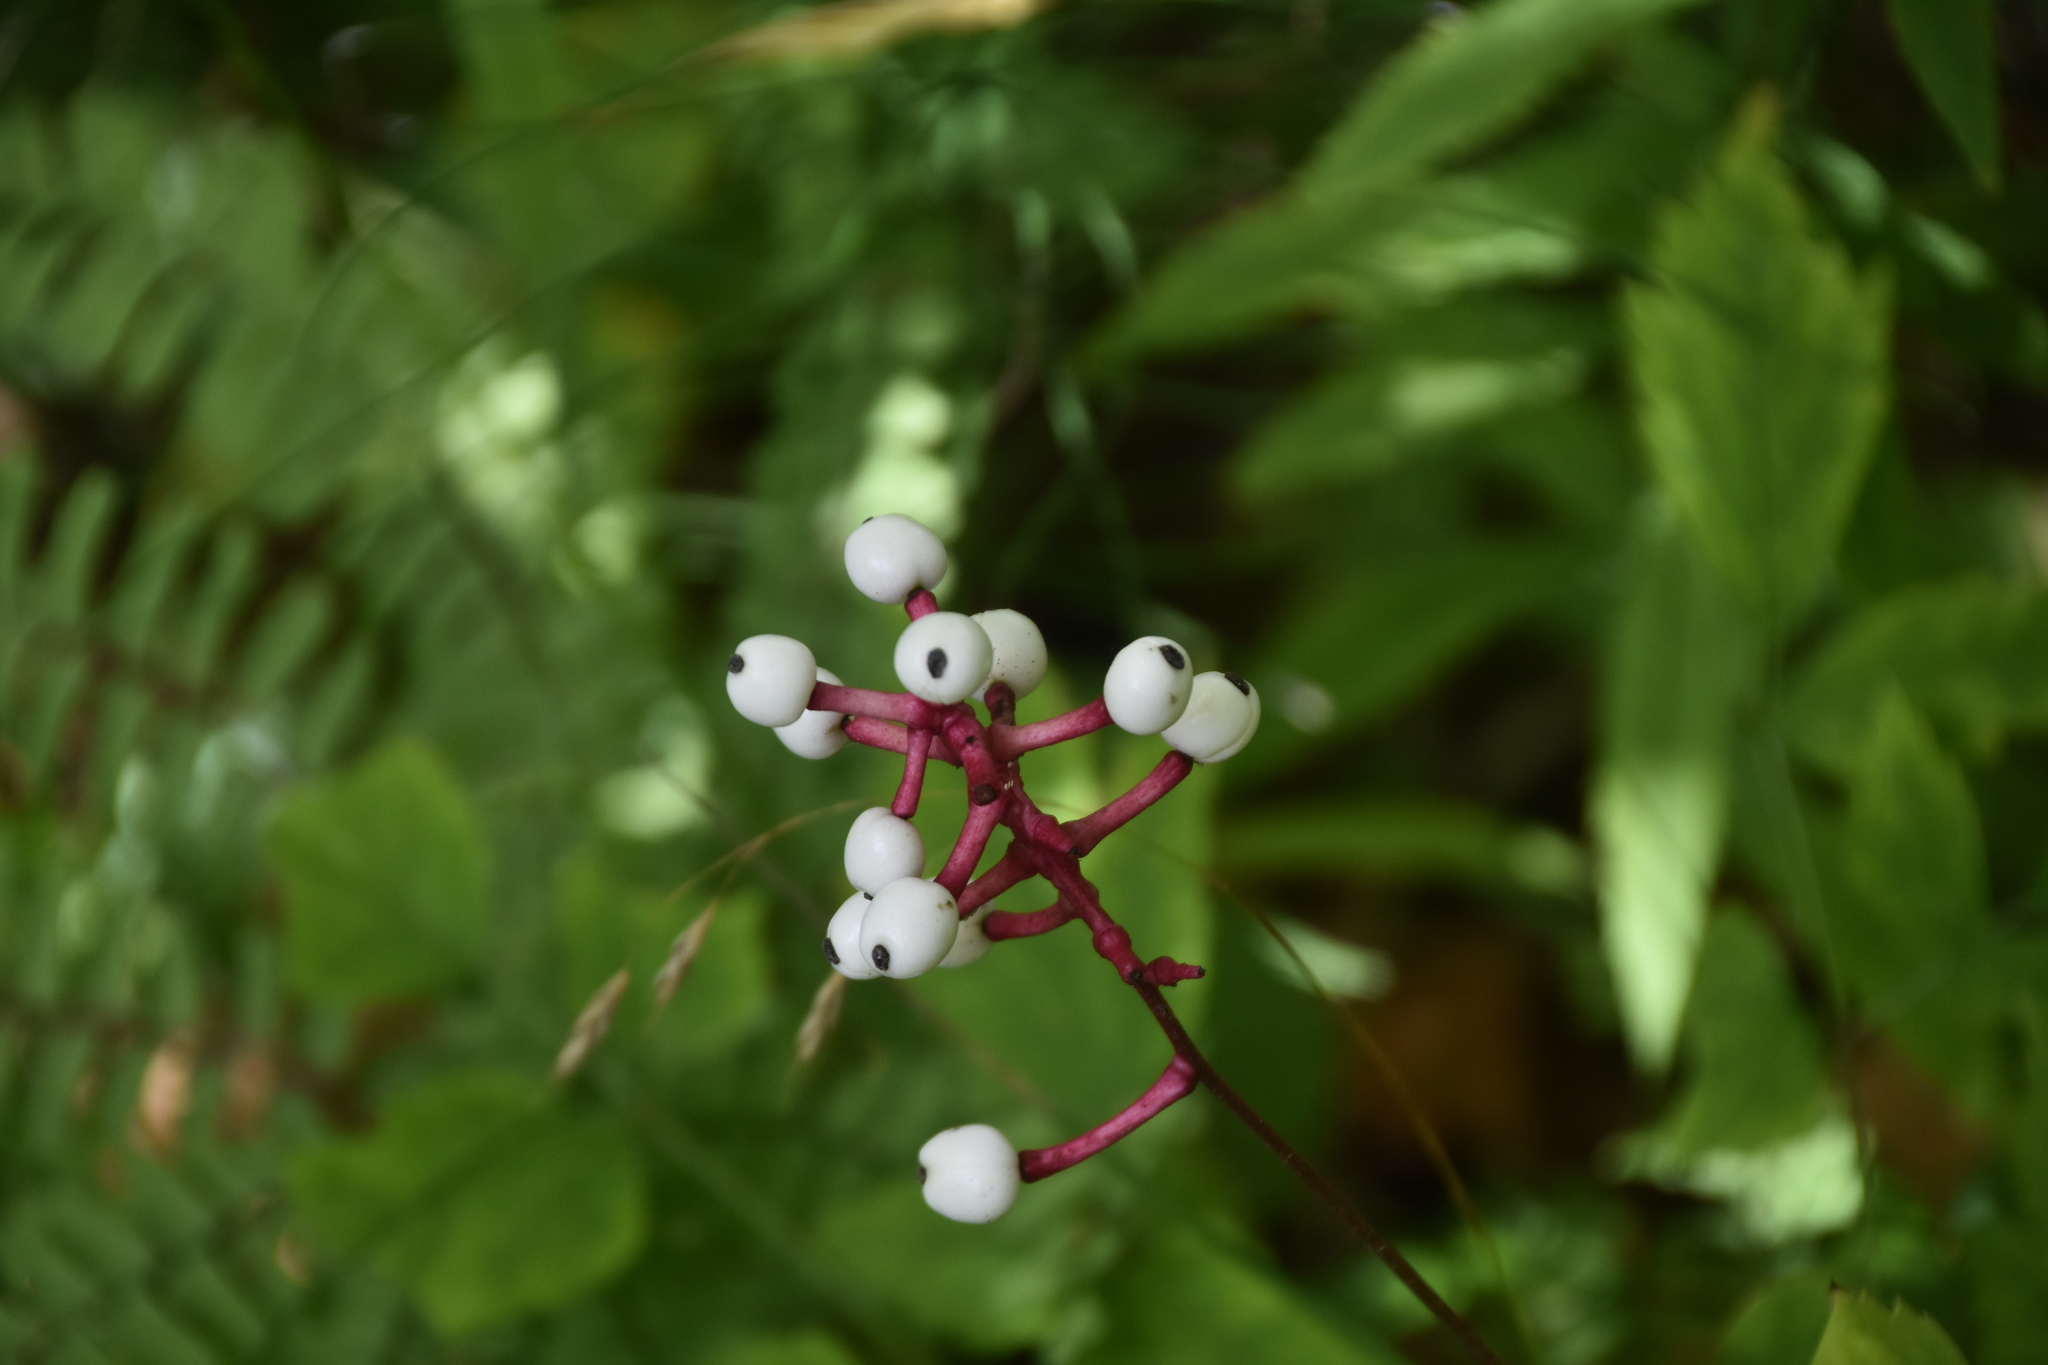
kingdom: Plantae
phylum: Tracheophyta
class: Magnoliopsida
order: Ranunculales
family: Ranunculaceae
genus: Actaea
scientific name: Actaea pachypoda
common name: Doll's-eyes
